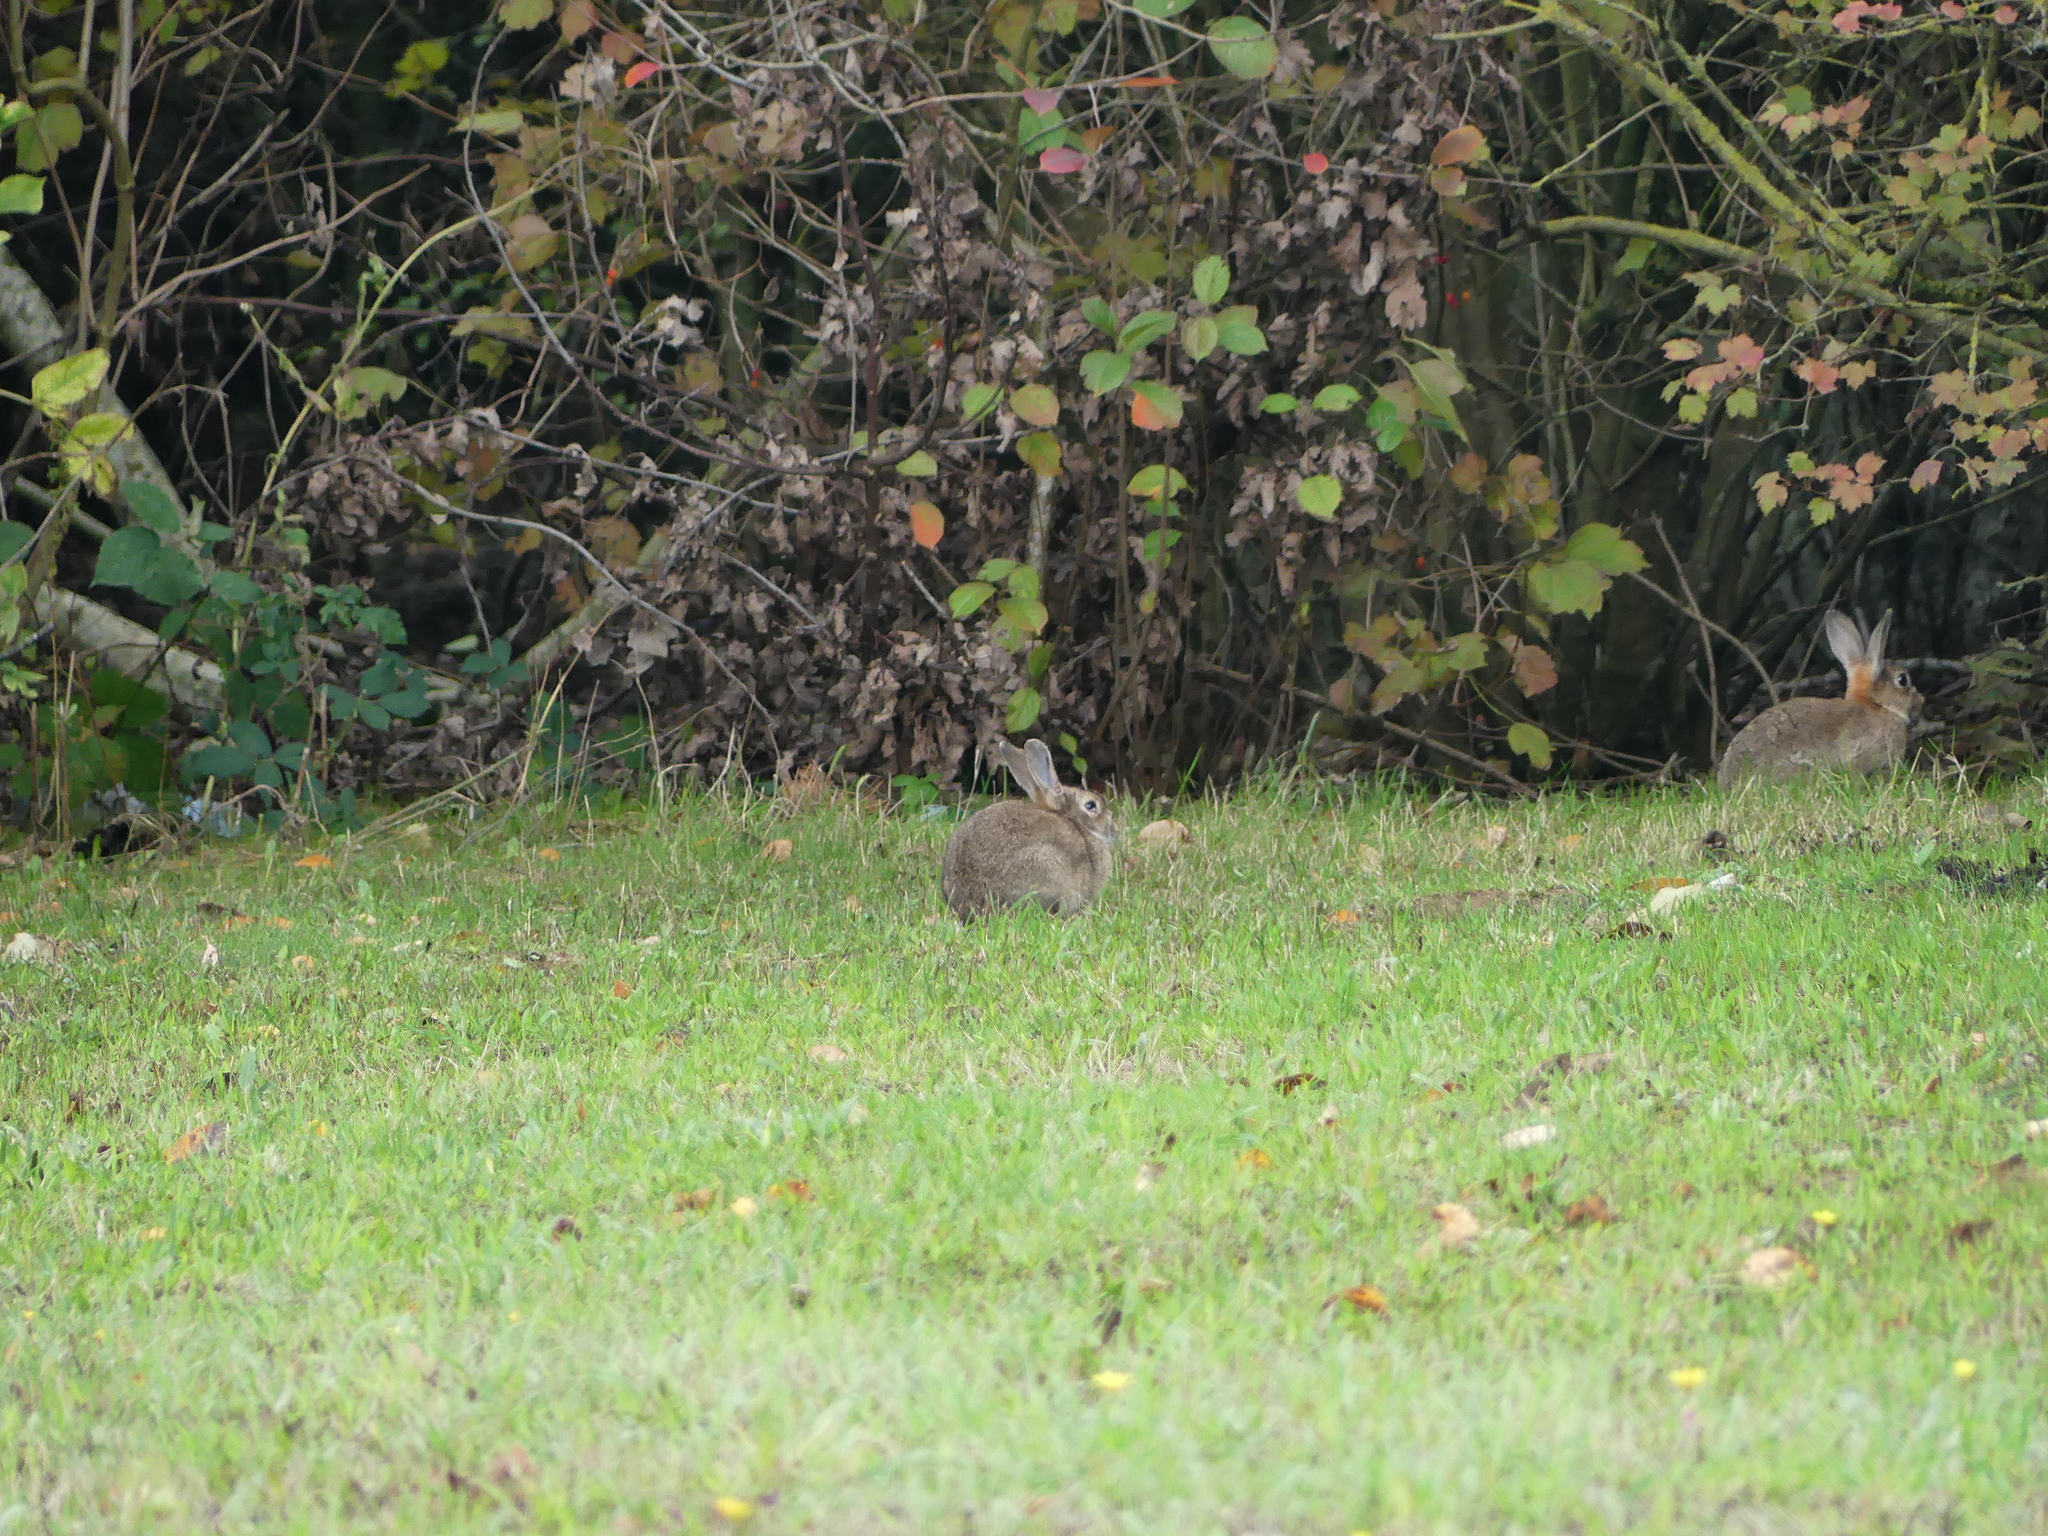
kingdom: Animalia
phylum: Chordata
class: Mammalia
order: Lagomorpha
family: Leporidae
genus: Oryctolagus
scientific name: Oryctolagus cuniculus
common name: European rabbit
